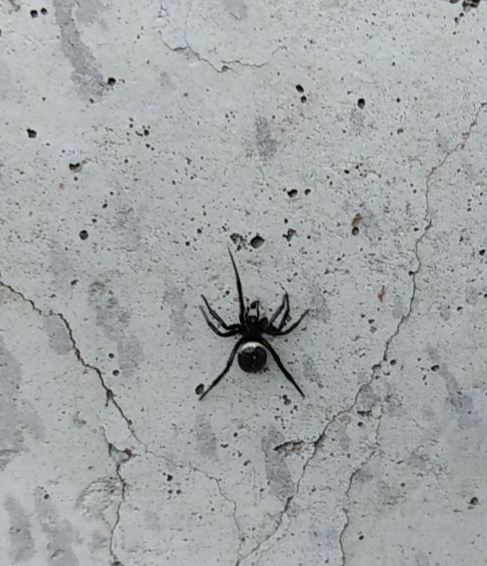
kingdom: Animalia
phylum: Arthropoda
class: Arachnida
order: Araneae
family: Theridiidae
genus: Steatoda
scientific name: Steatoda paykulliana
